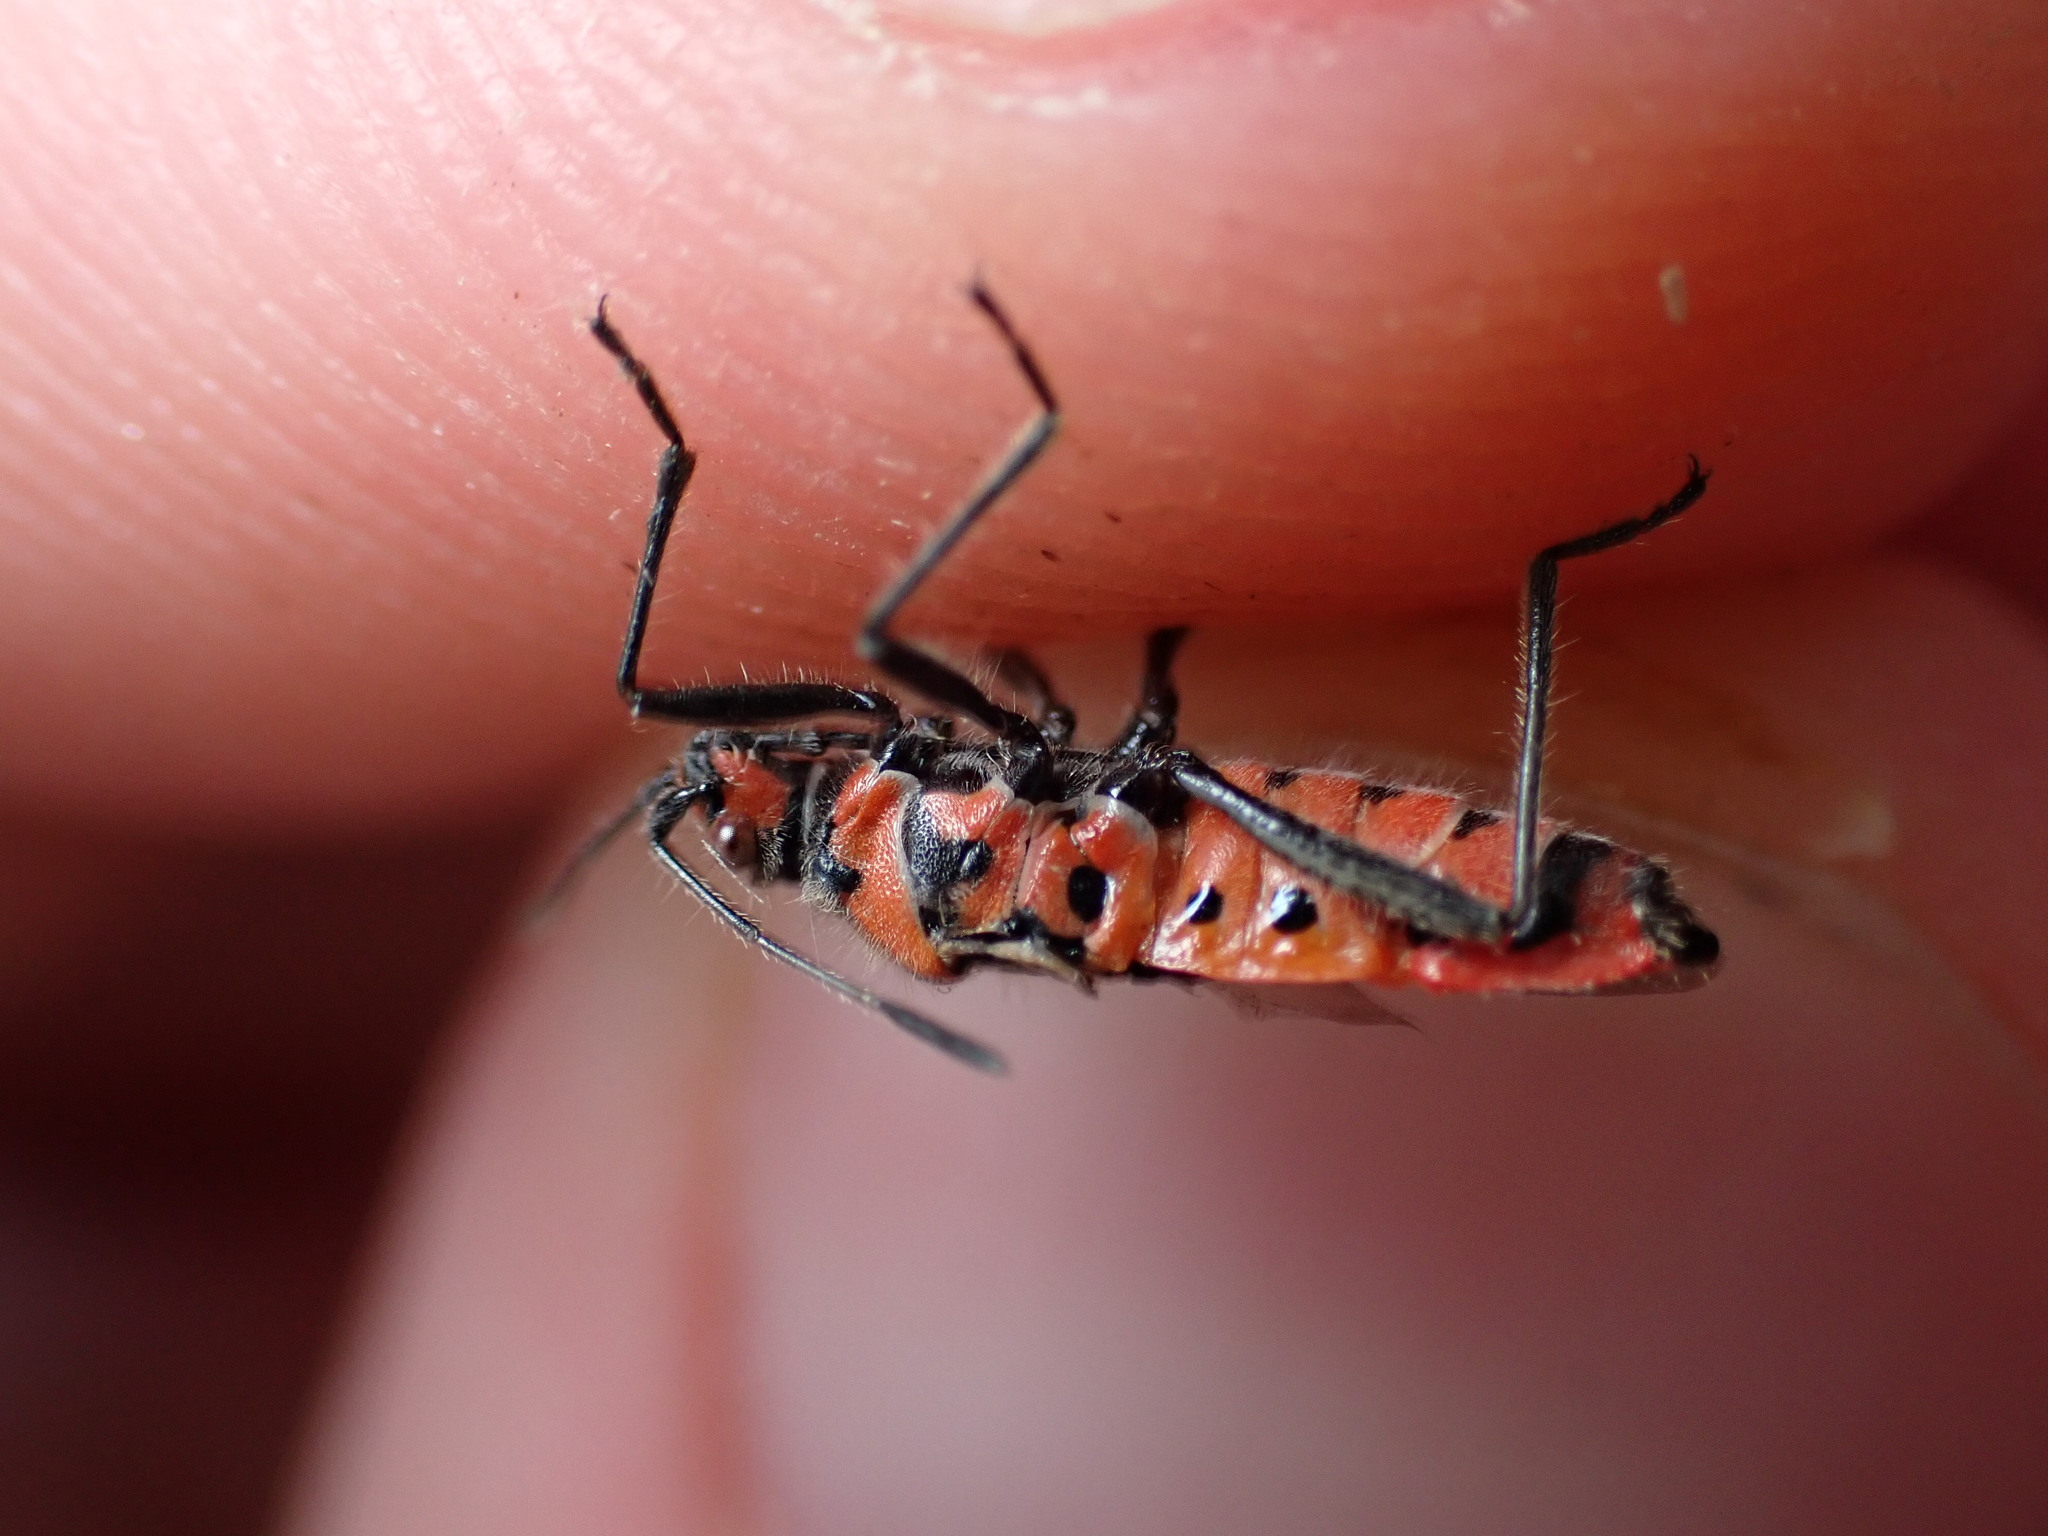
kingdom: Animalia
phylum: Arthropoda
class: Insecta
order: Hemiptera
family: Rhopalidae
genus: Corizus
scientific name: Corizus hyoscyami
